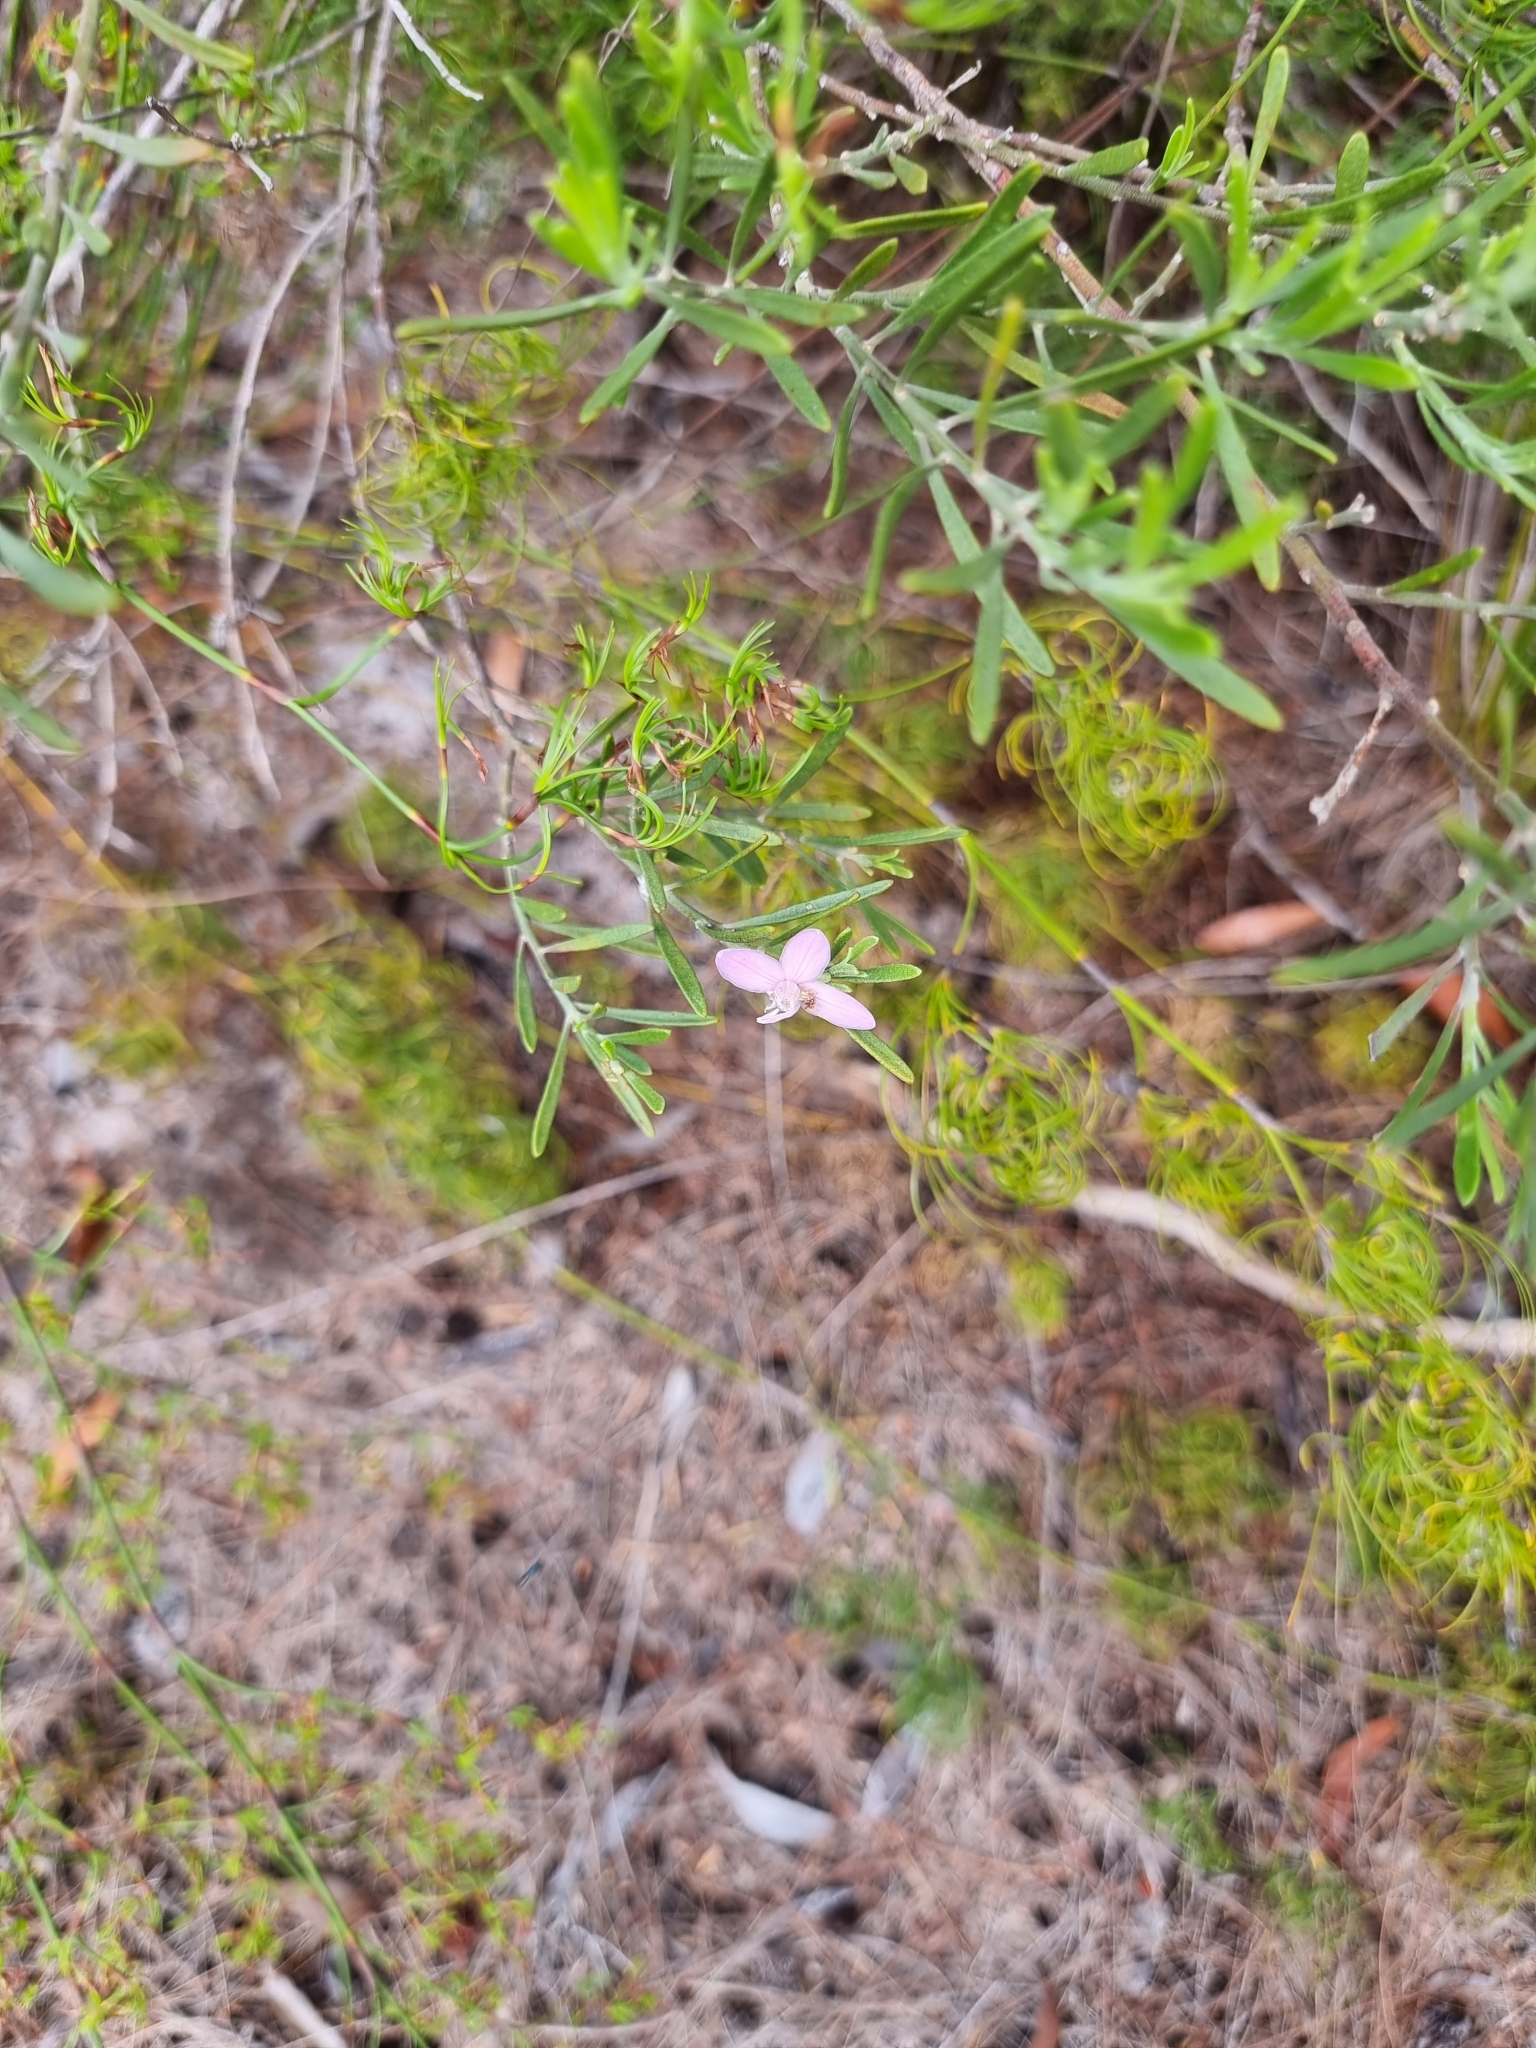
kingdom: Plantae
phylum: Tracheophyta
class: Magnoliopsida
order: Sapindales
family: Rutaceae
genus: Eriostemon
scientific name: Eriostemon australasius
